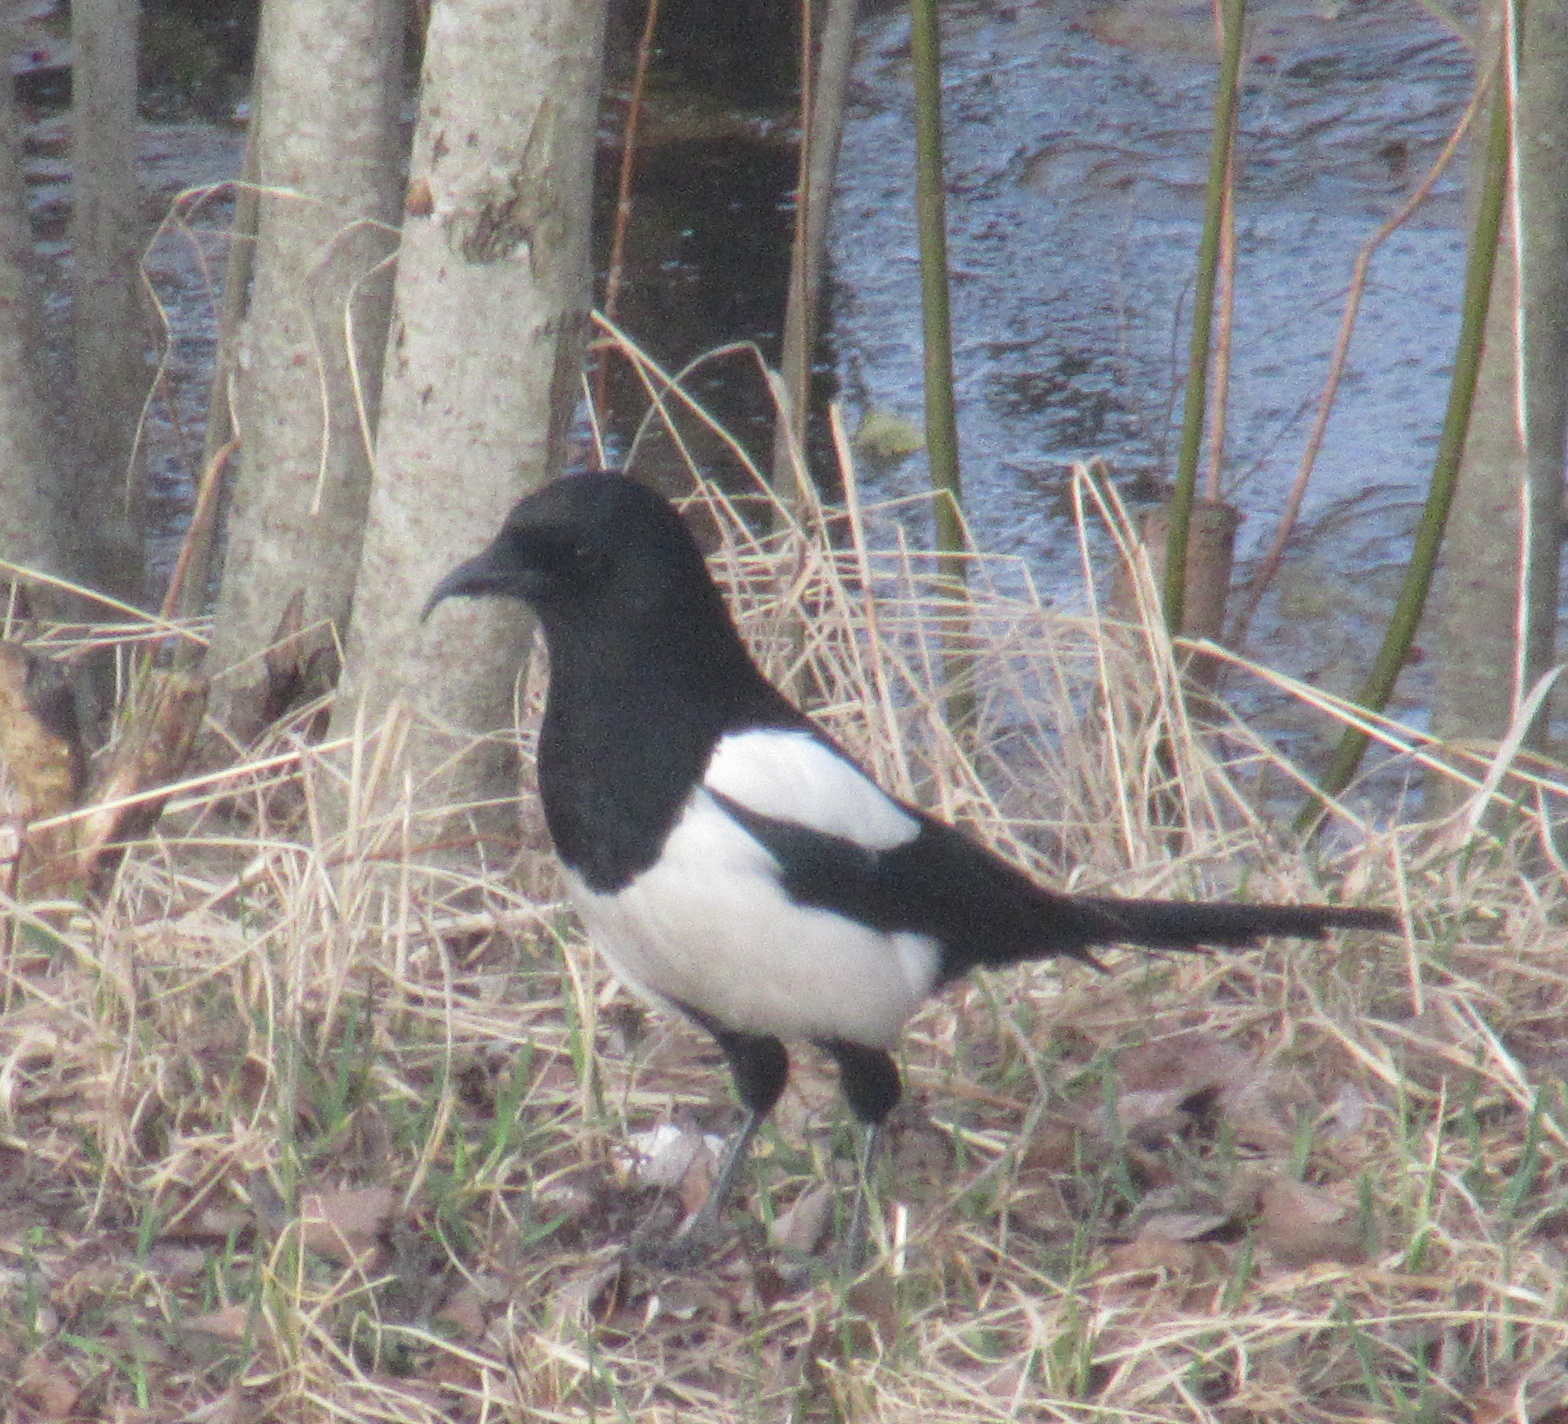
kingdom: Animalia
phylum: Chordata
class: Aves
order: Passeriformes
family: Corvidae
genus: Pica
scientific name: Pica pica
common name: Eurasian magpie
